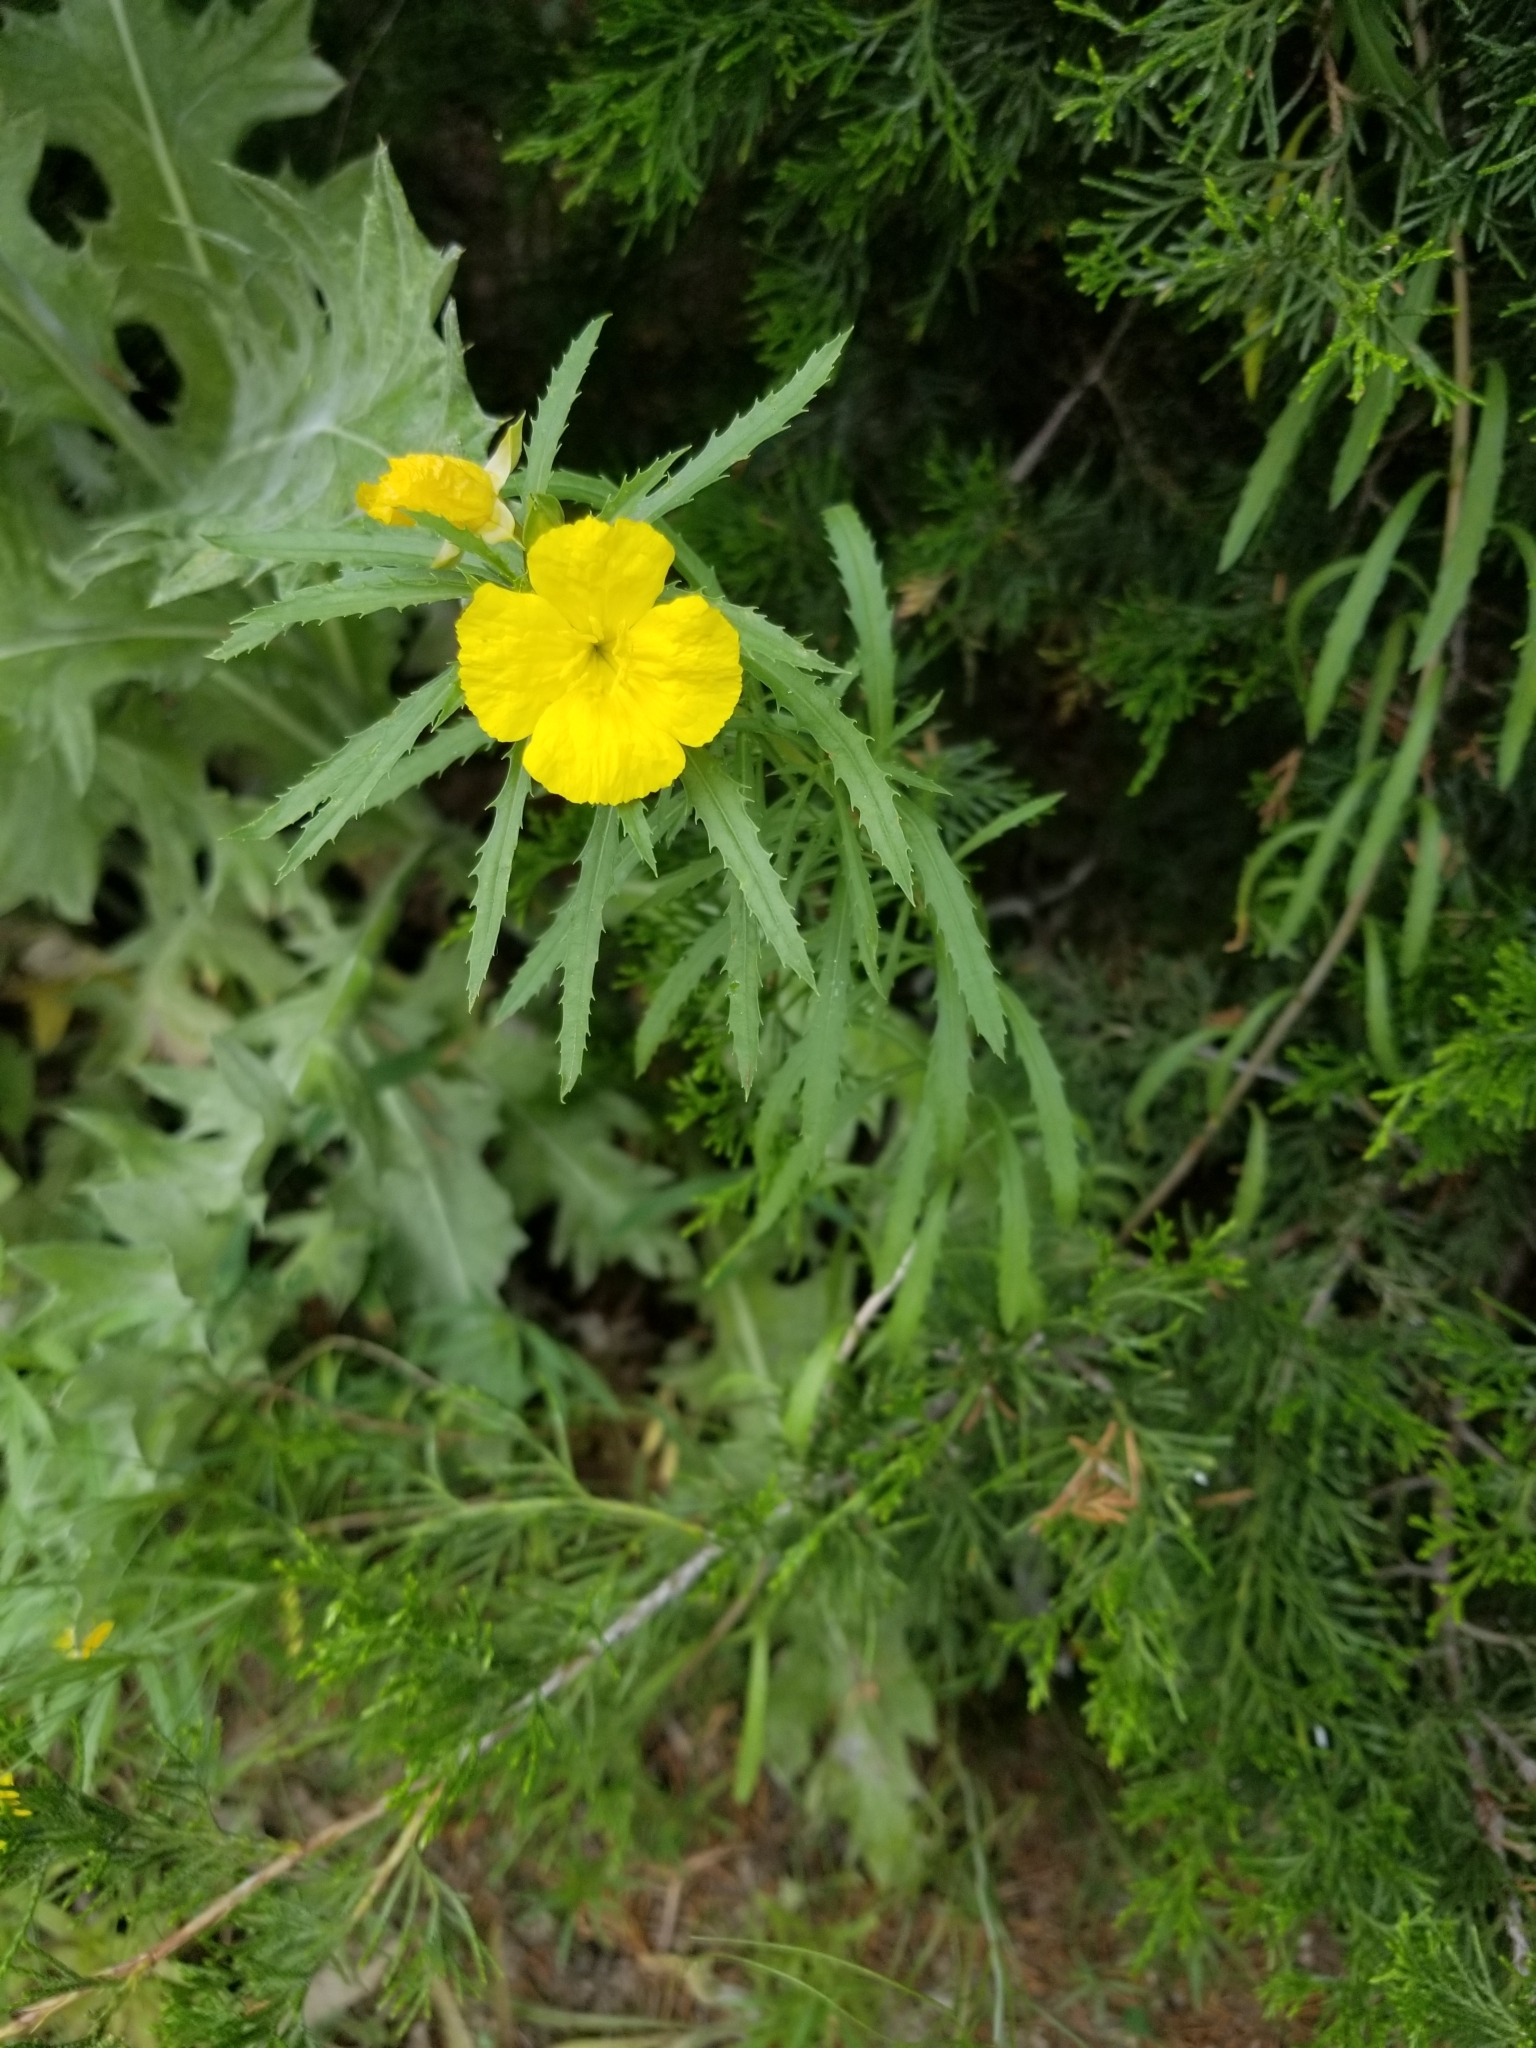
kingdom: Plantae
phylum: Tracheophyta
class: Magnoliopsida
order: Myrtales
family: Onagraceae
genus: Oenothera
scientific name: Oenothera
